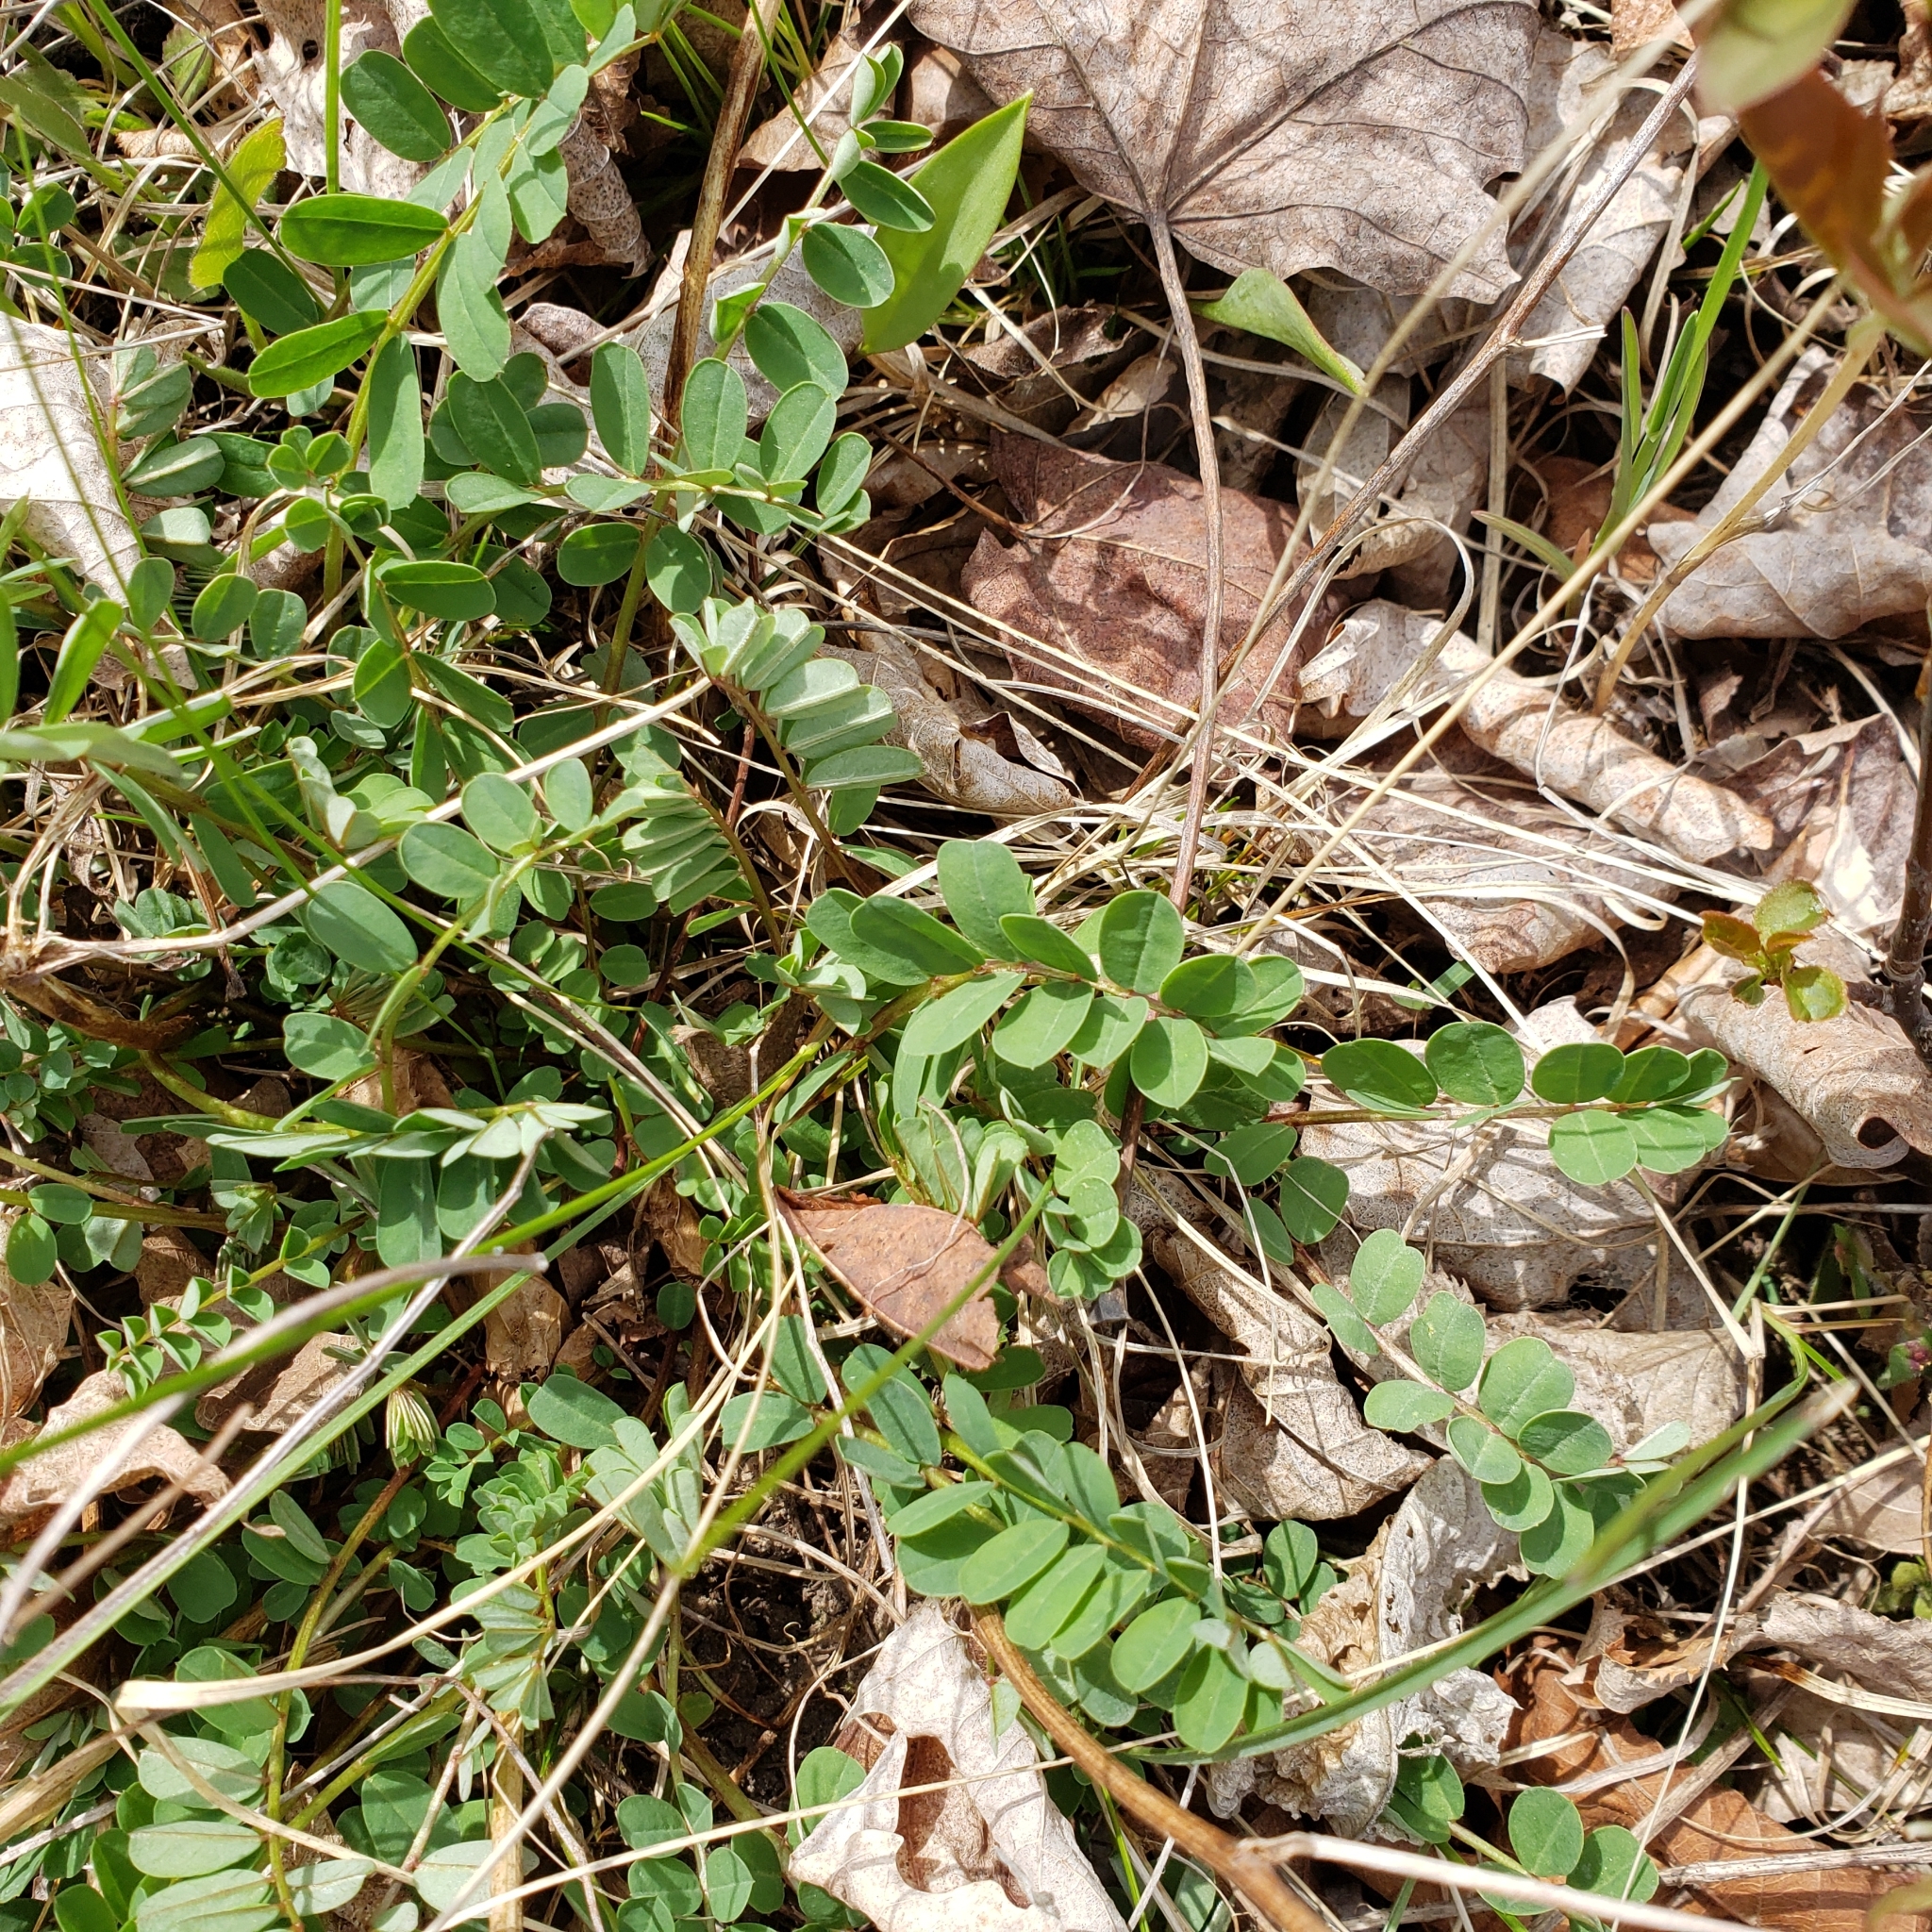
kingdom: Plantae
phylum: Tracheophyta
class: Magnoliopsida
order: Fabales
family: Fabaceae
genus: Coronilla
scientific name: Coronilla varia
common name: Crownvetch
